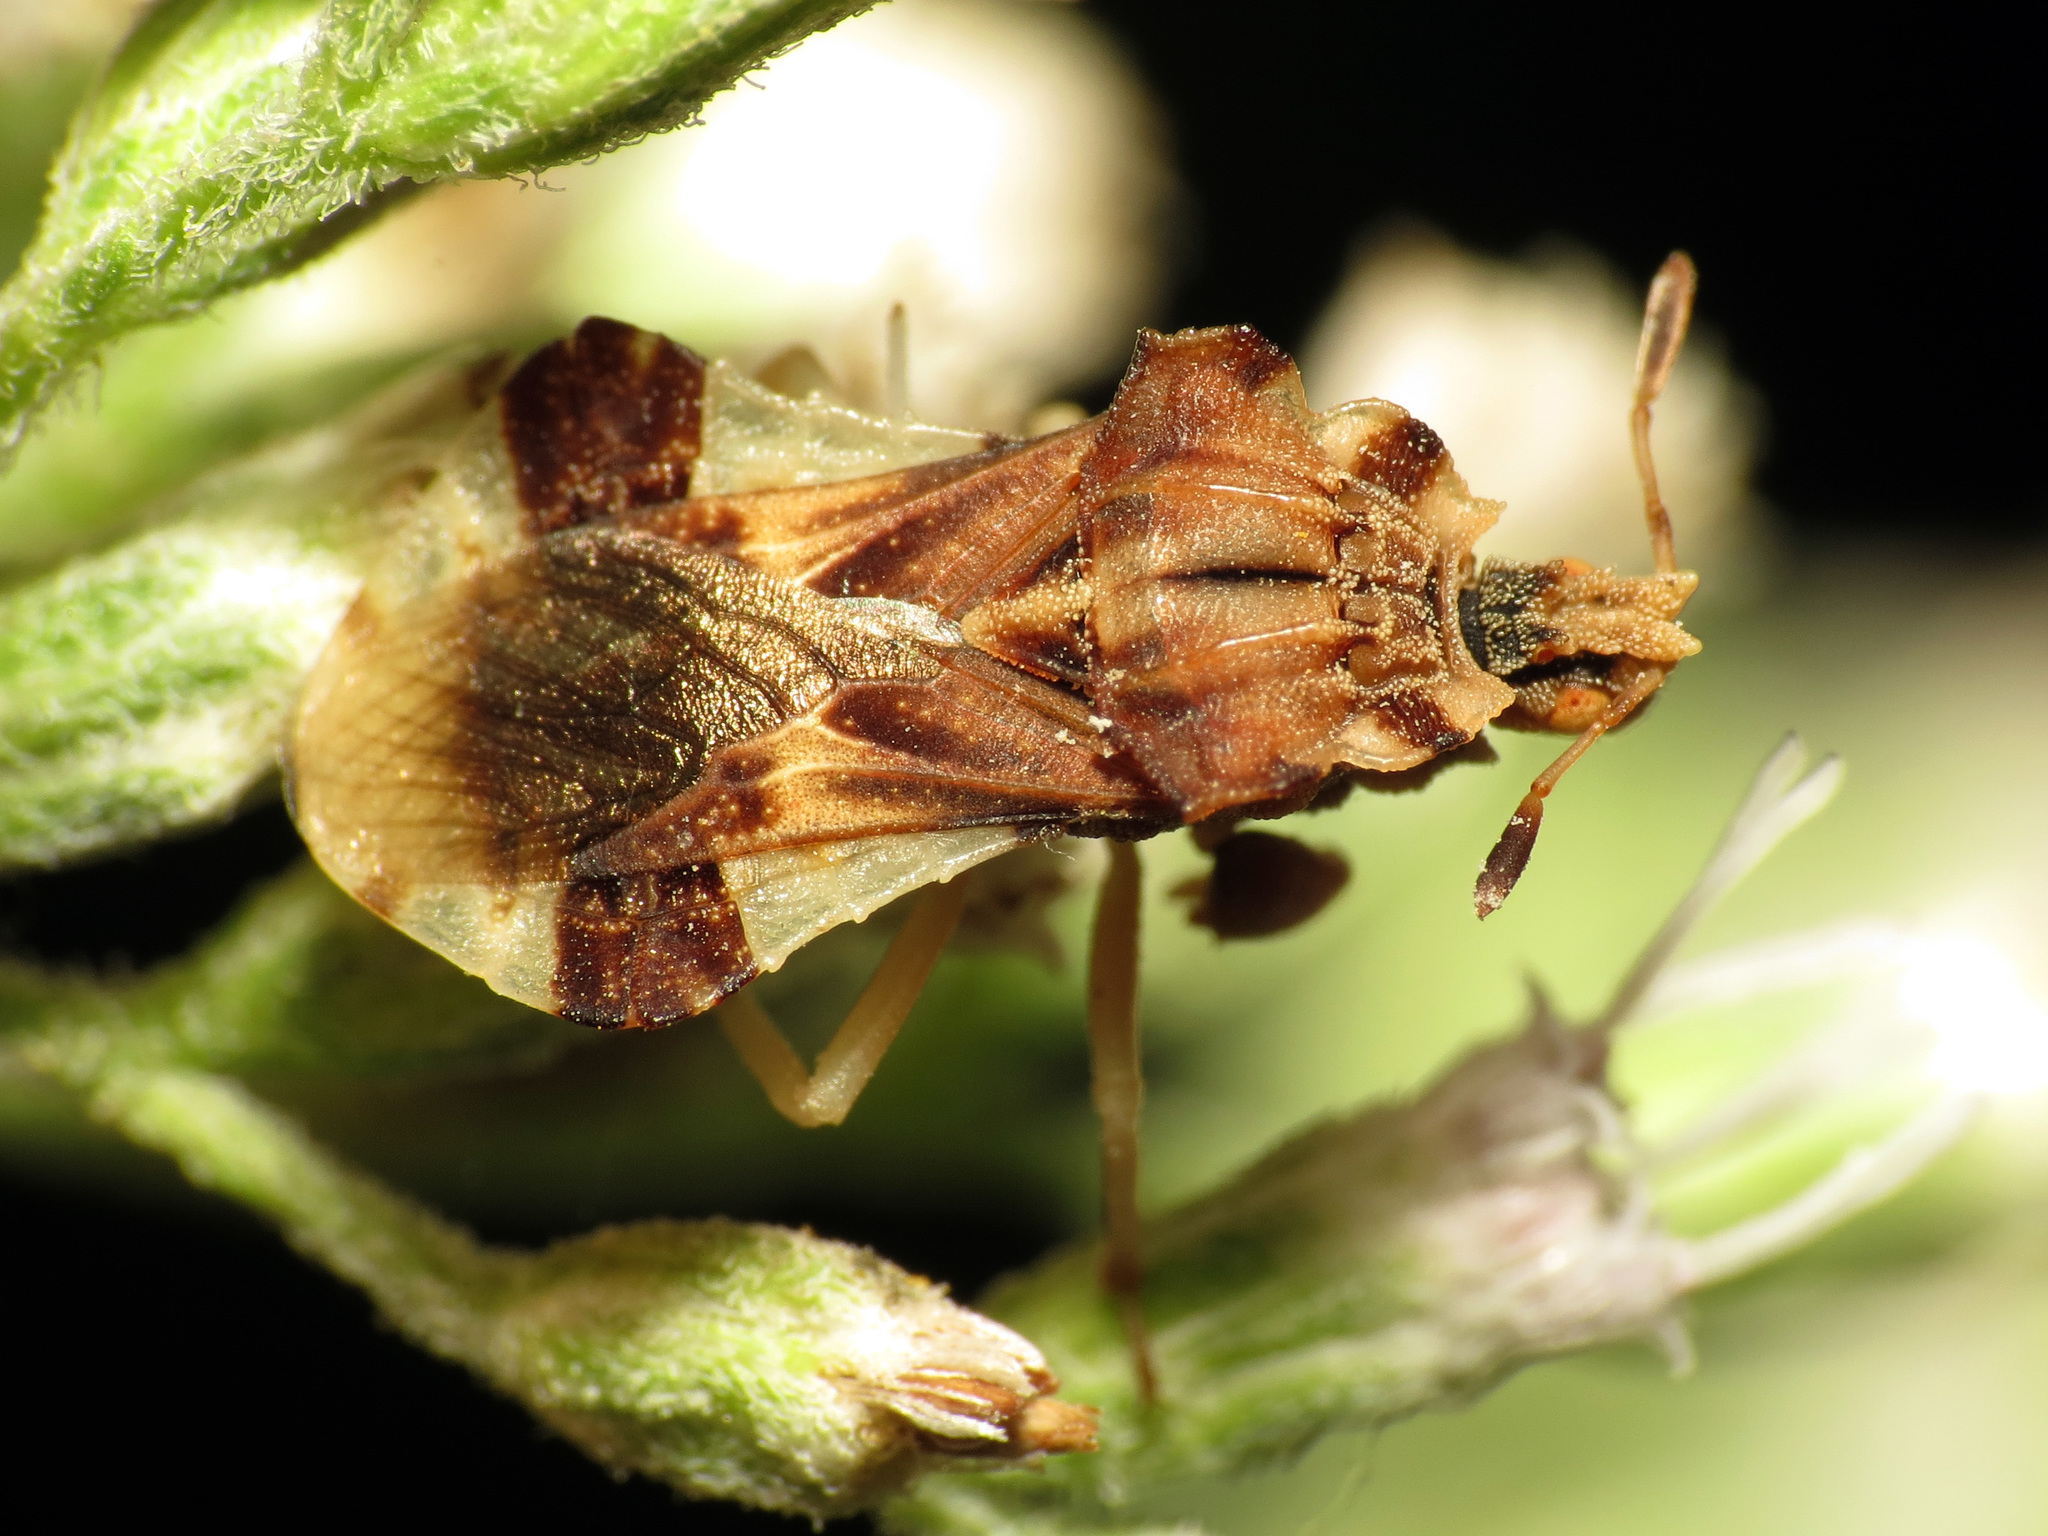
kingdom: Animalia
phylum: Arthropoda
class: Insecta
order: Hemiptera
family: Reduviidae
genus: Phymata
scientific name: Phymata fasciata
